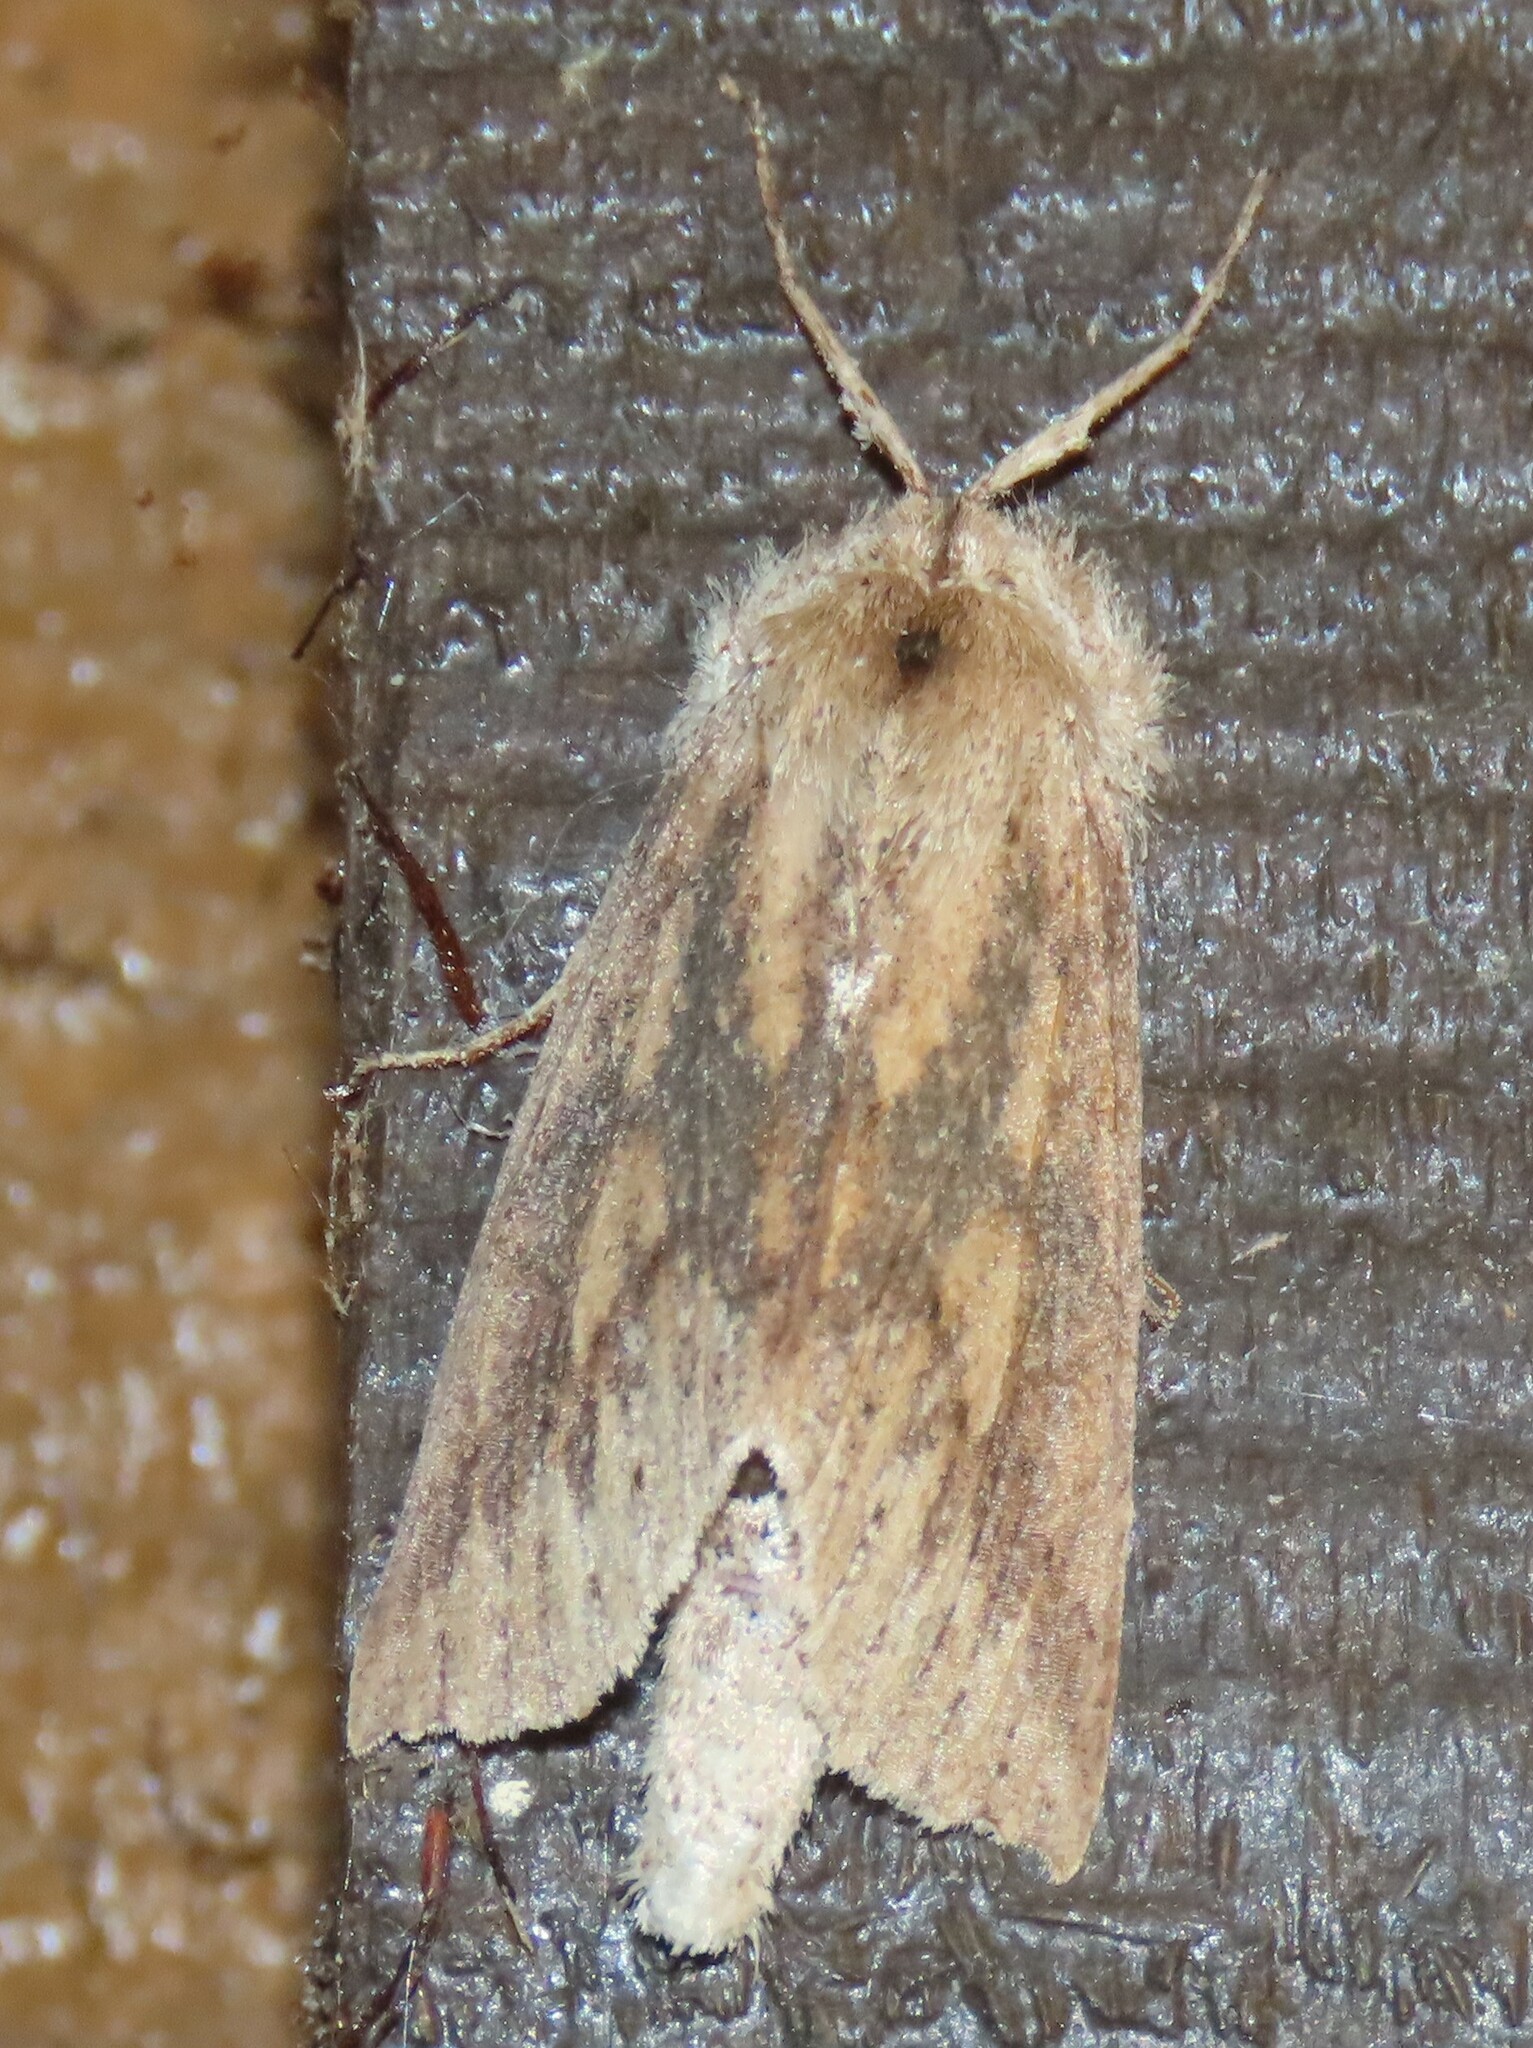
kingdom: Animalia
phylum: Arthropoda
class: Insecta
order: Lepidoptera
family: Geometridae
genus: Declana
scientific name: Declana leptomera
